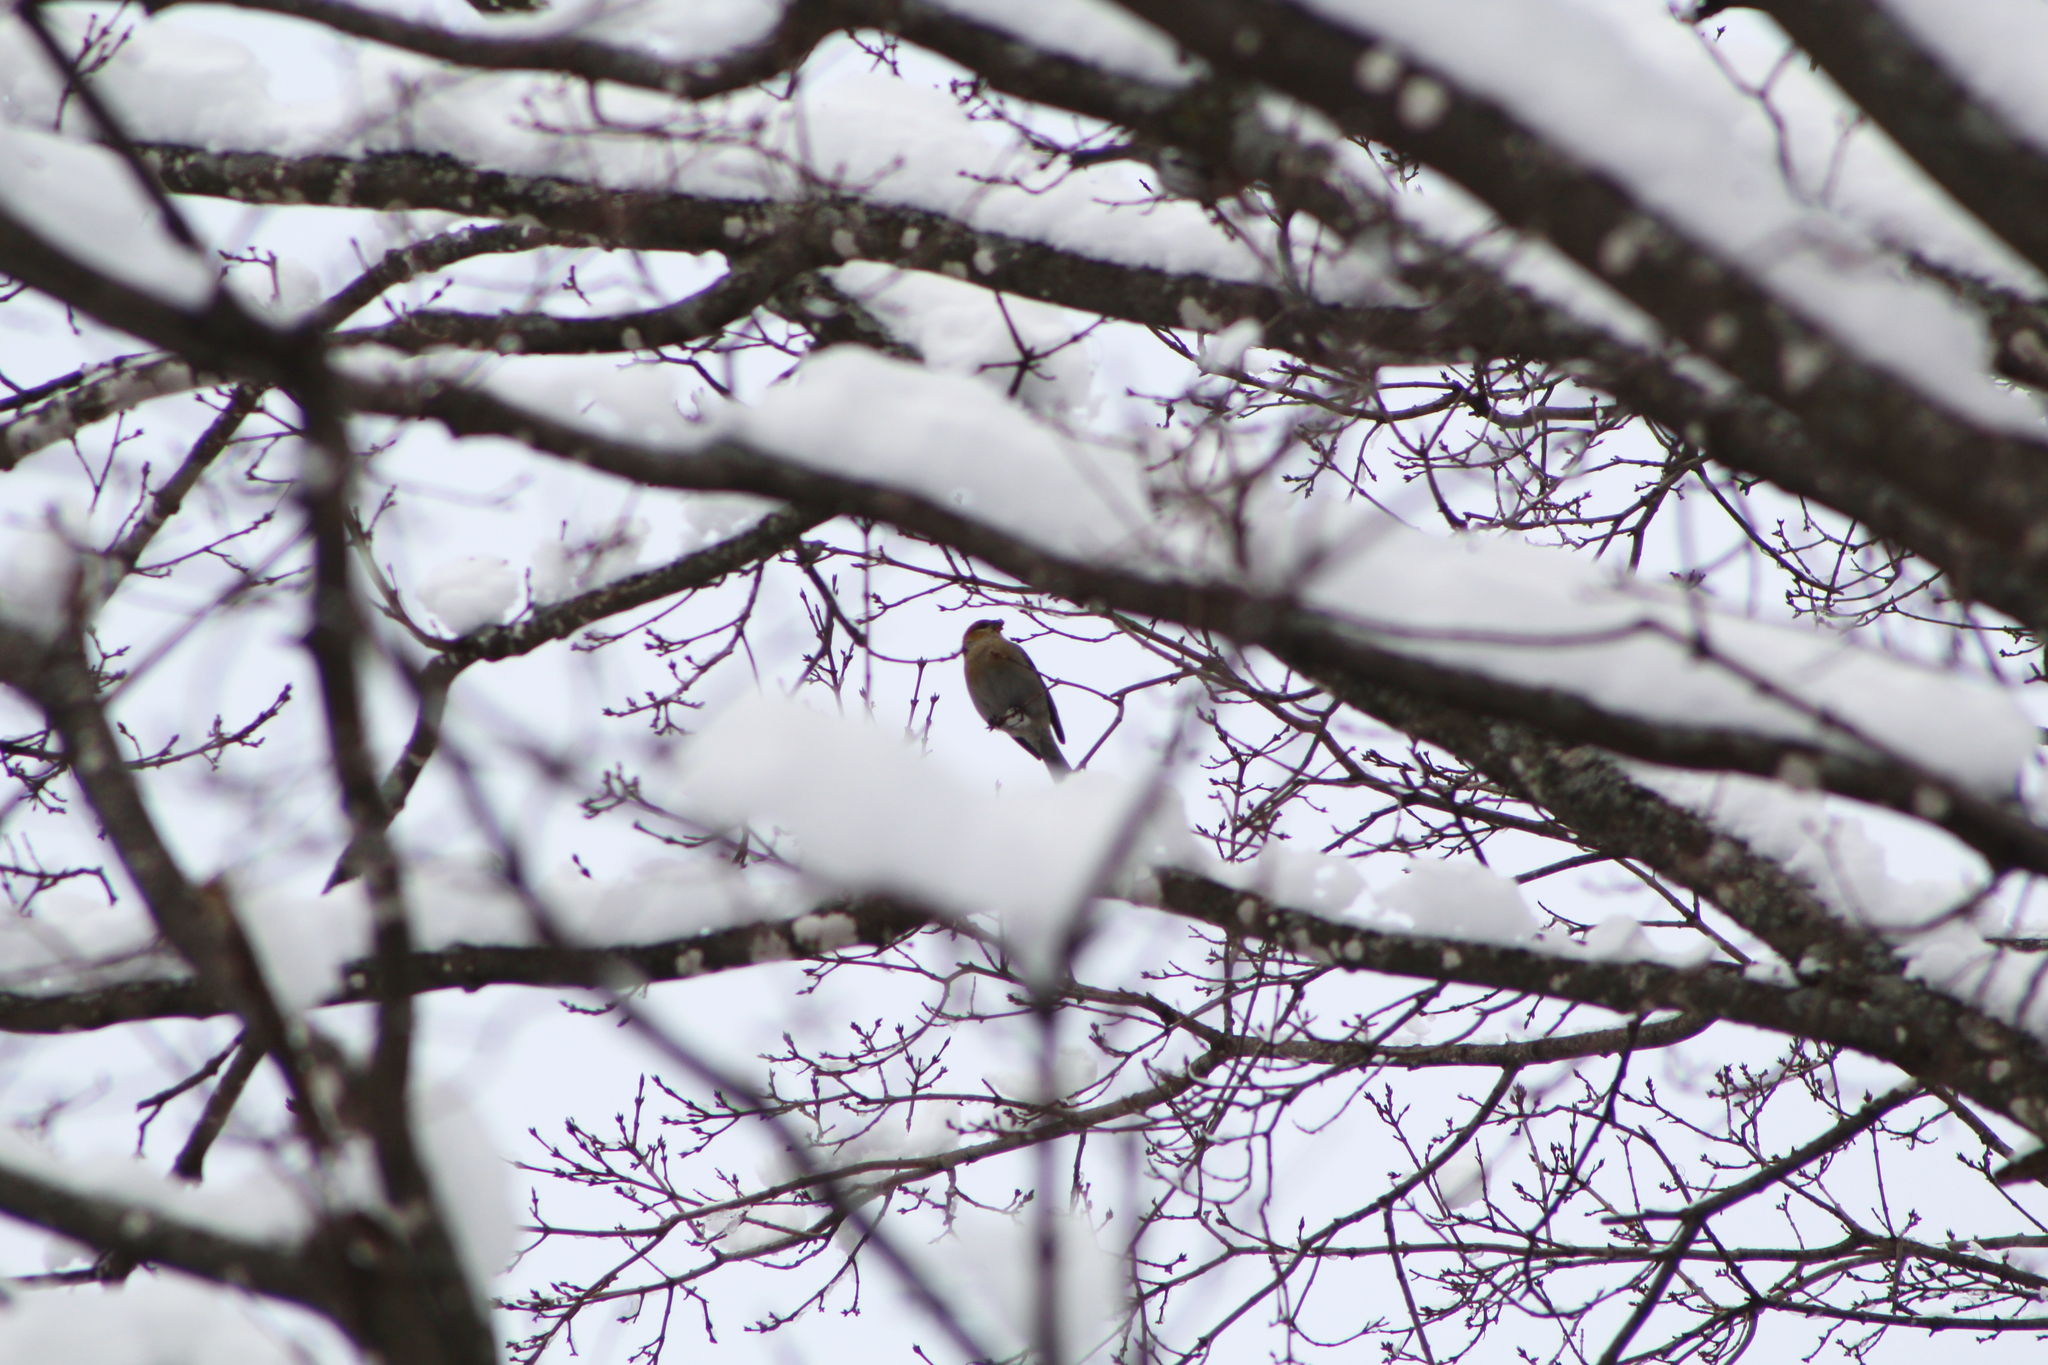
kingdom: Animalia
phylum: Chordata
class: Aves
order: Passeriformes
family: Fringillidae
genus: Pinicola
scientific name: Pinicola enucleator
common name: Pine grosbeak
